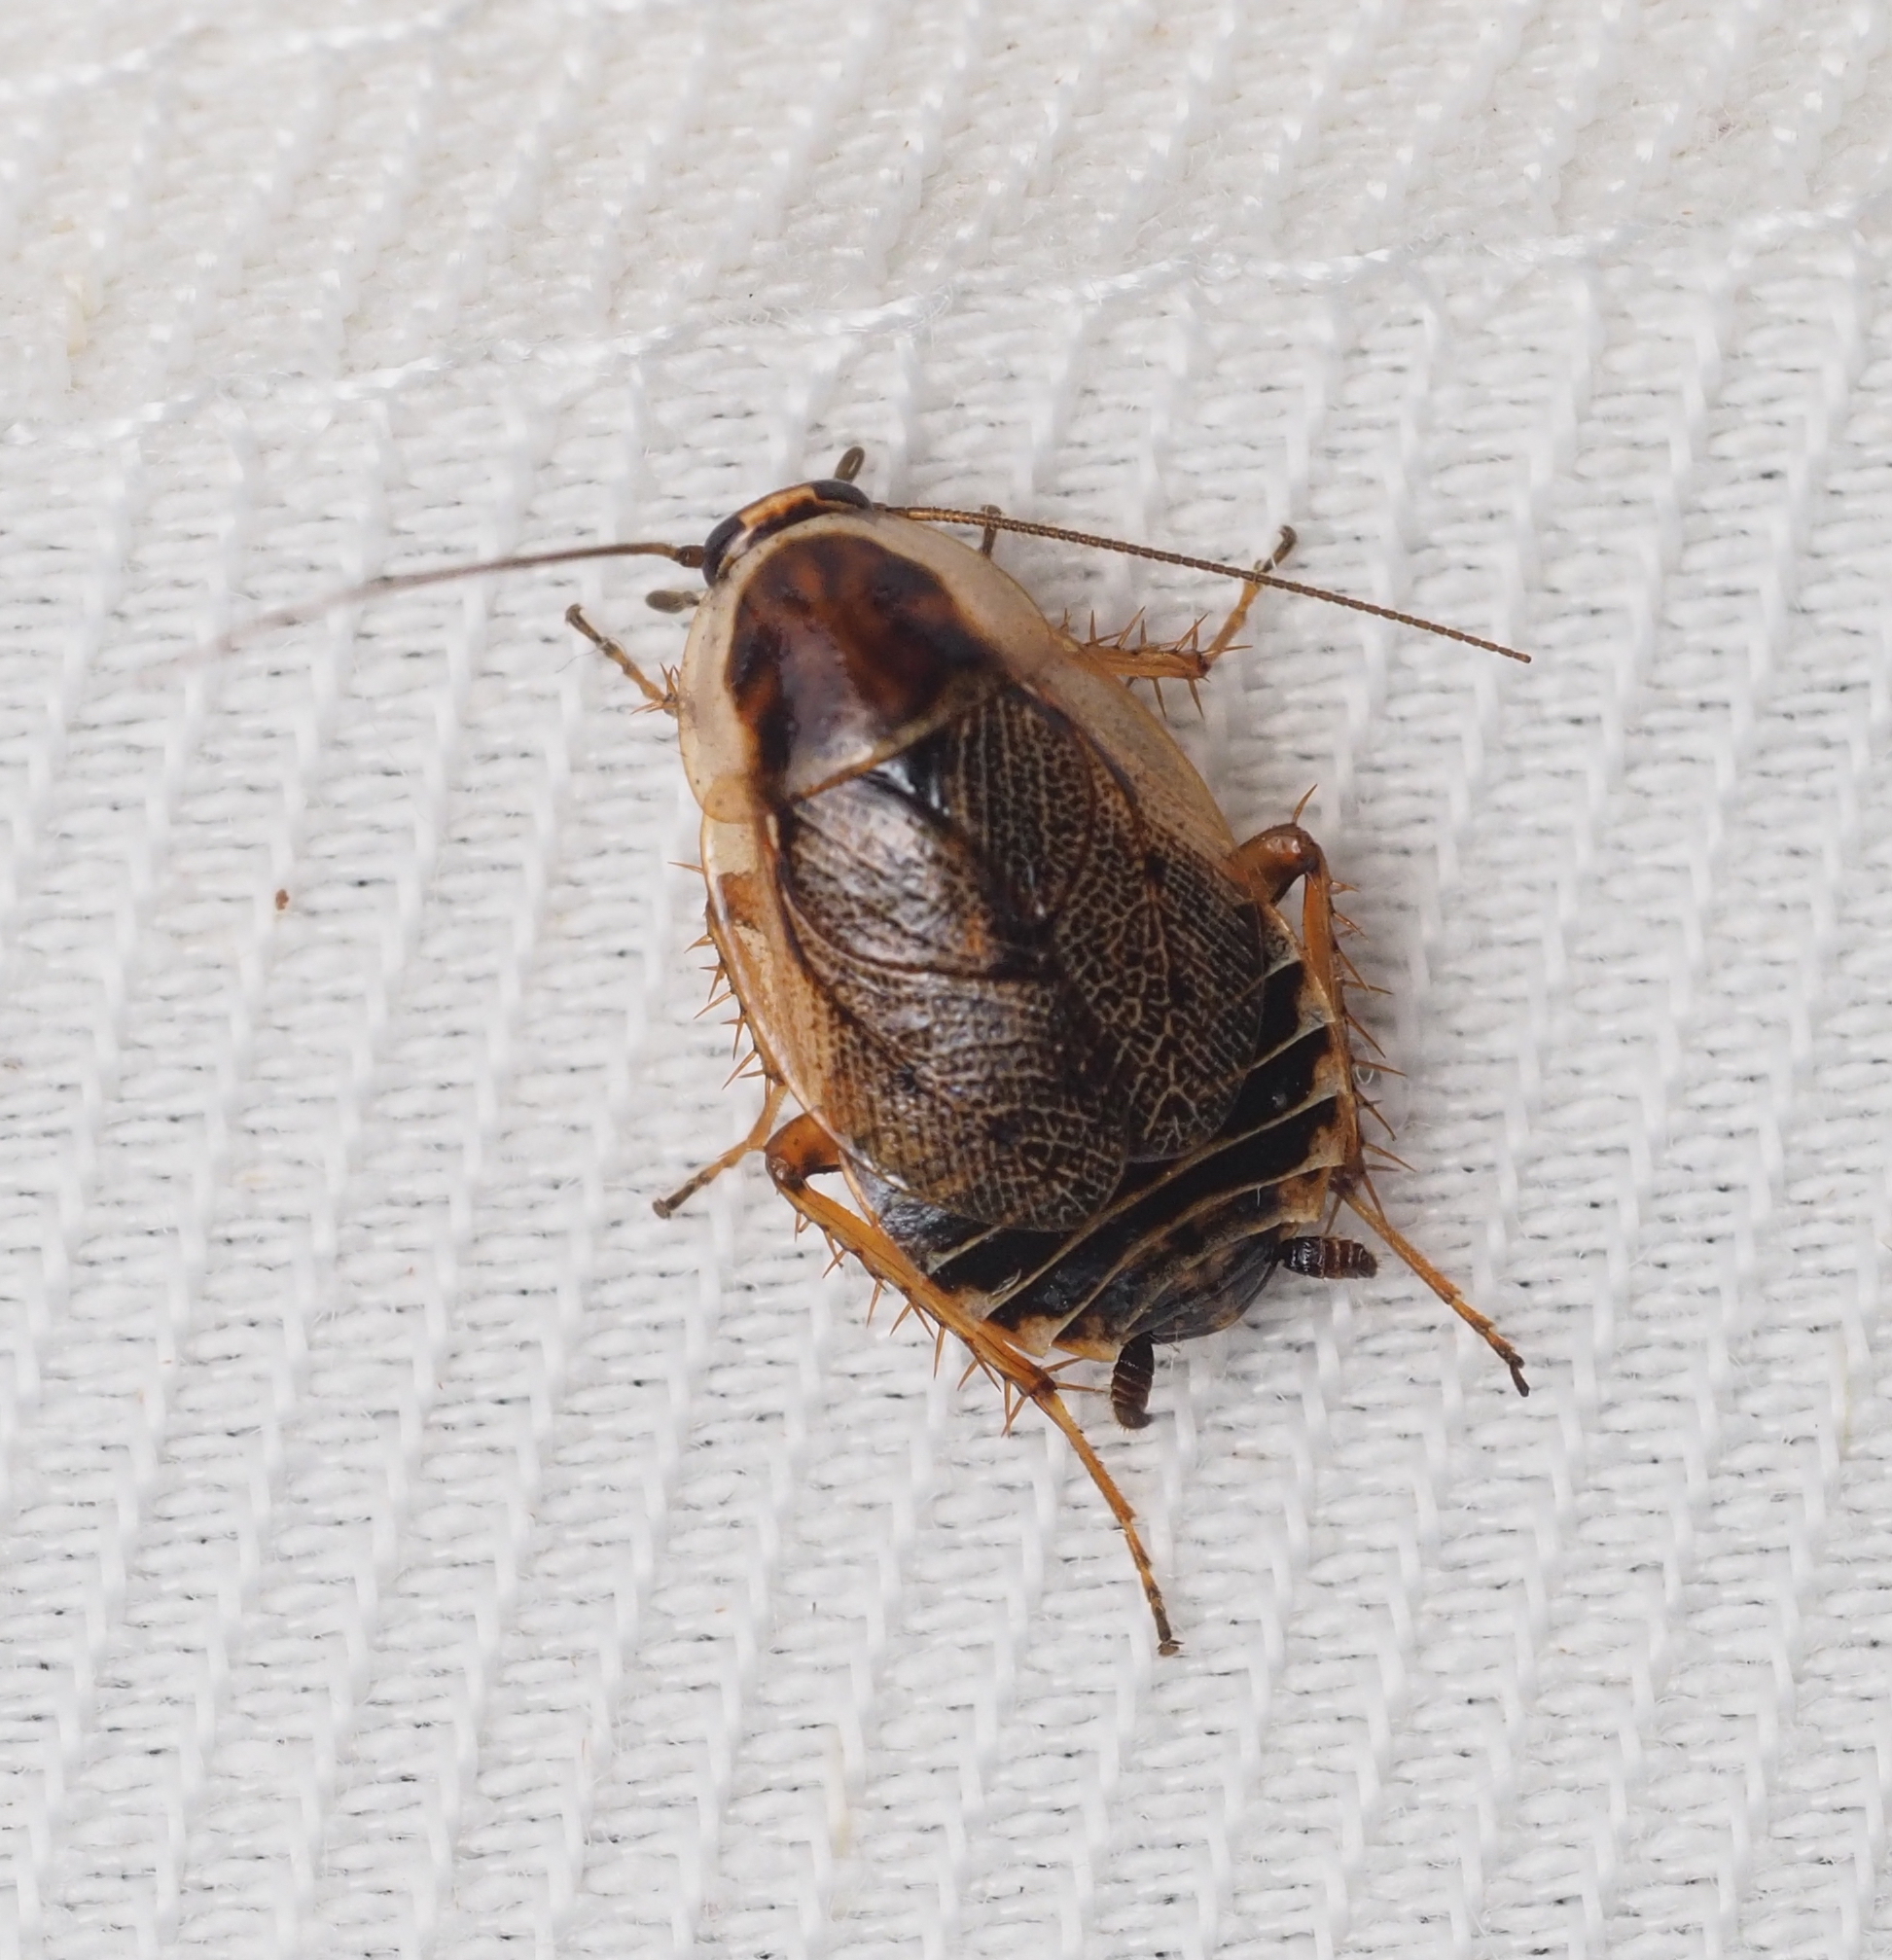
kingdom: Animalia
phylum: Arthropoda
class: Insecta
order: Blattodea
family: Ectobiidae
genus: Ectobius
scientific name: Ectobius sylvestris
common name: Forest cockroach
